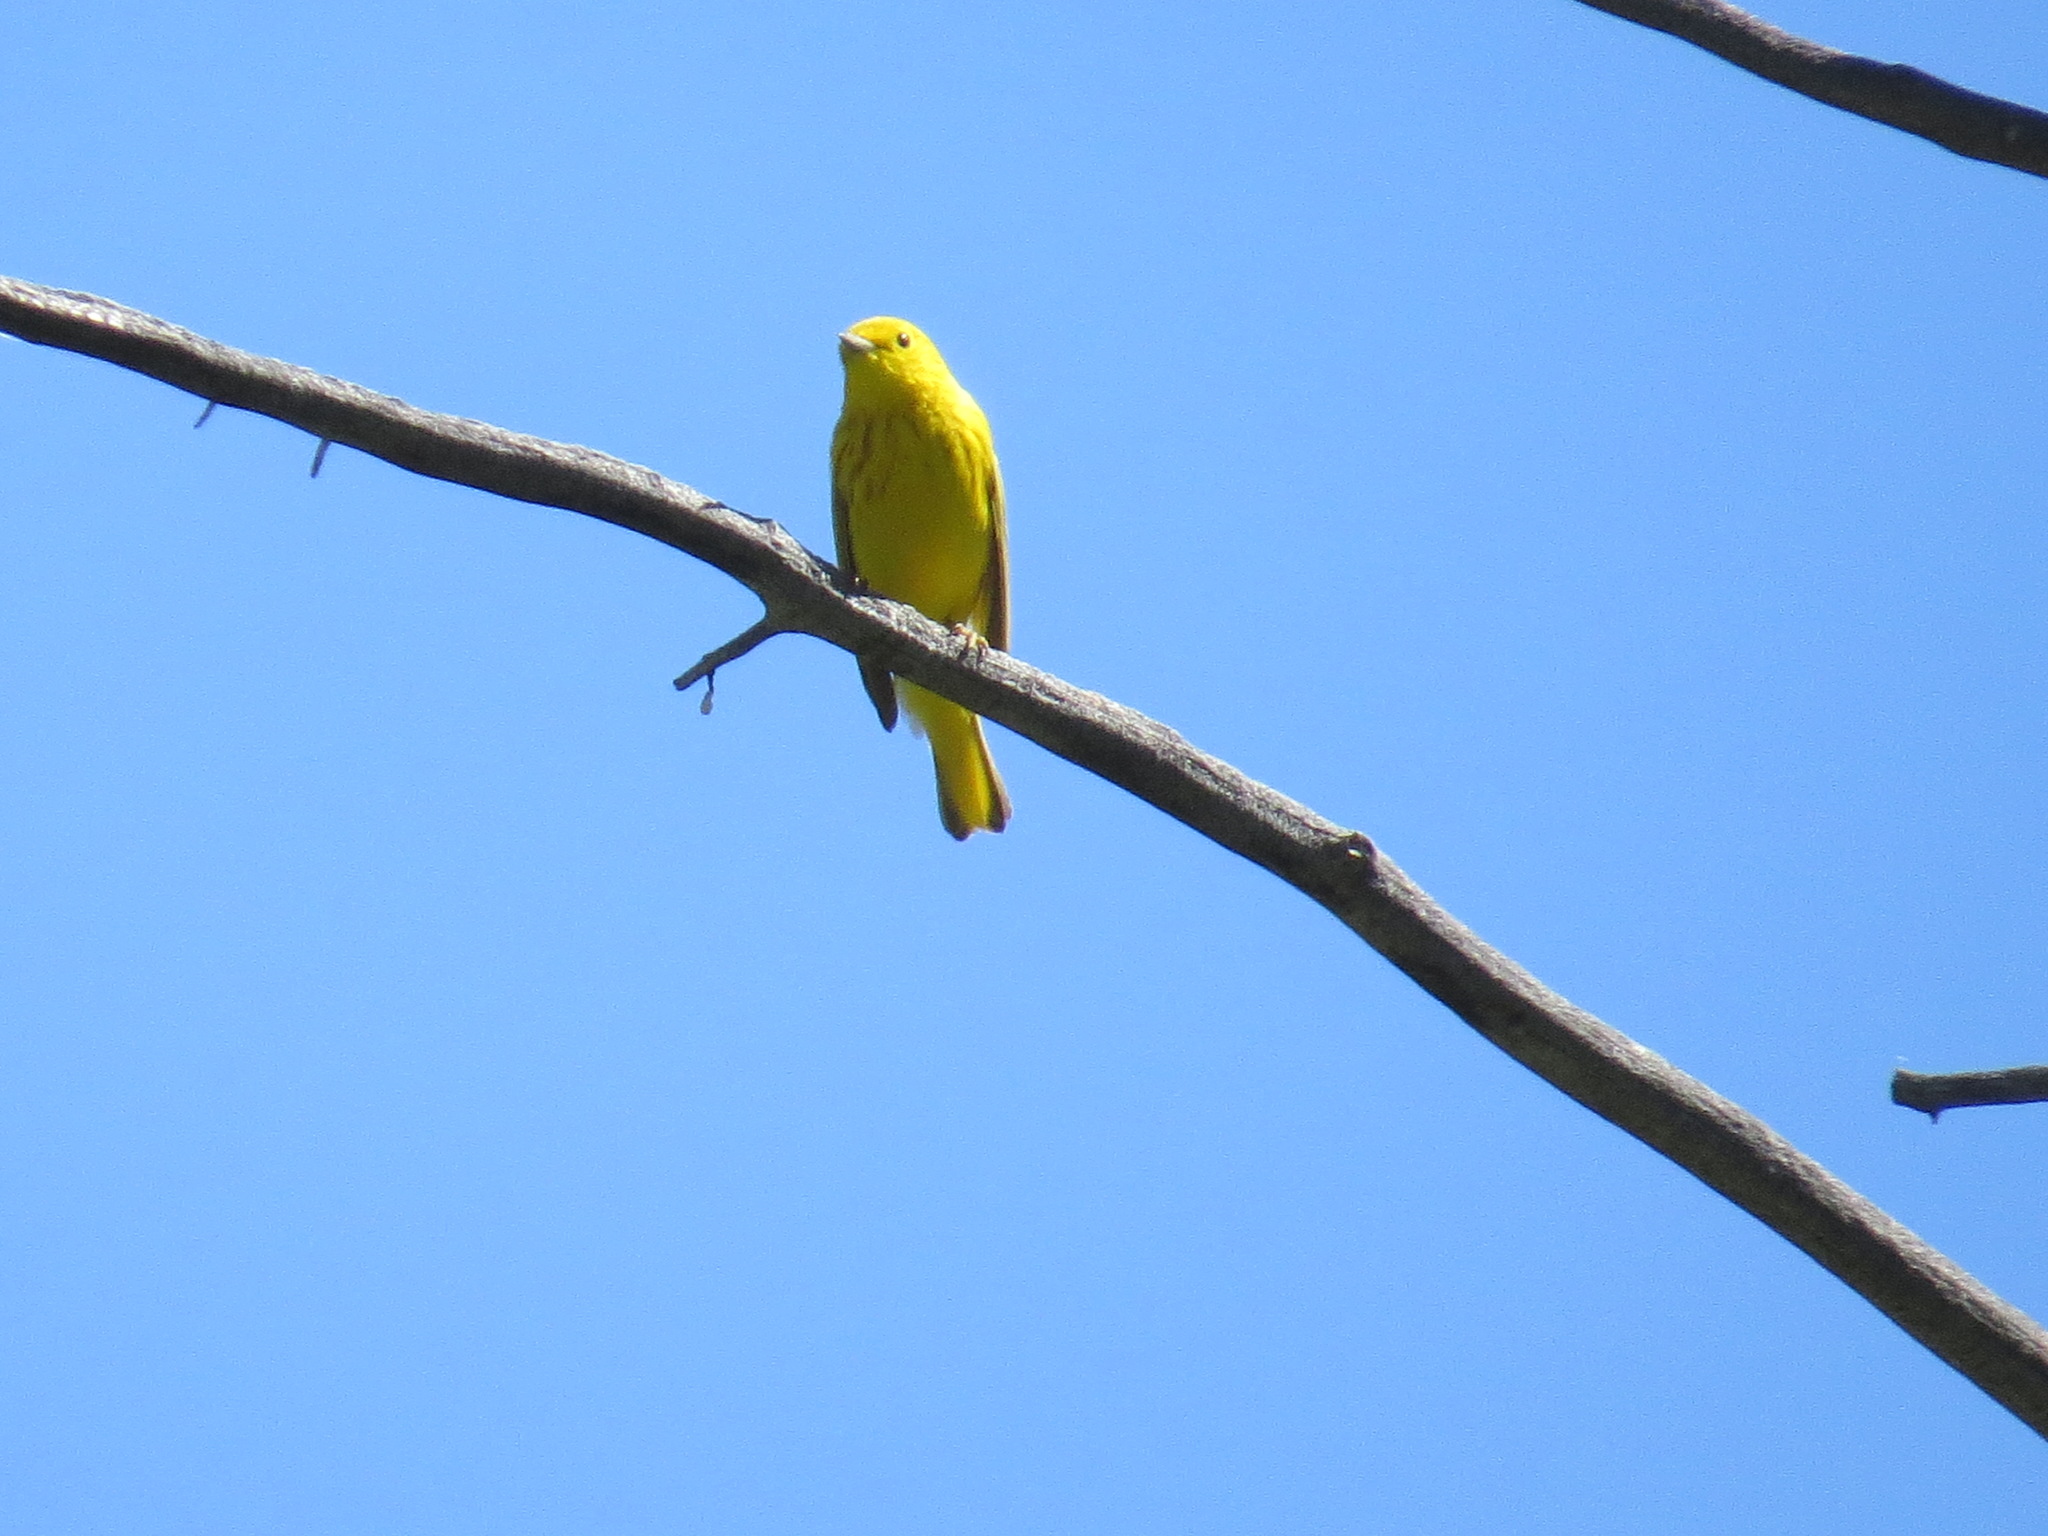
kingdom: Animalia
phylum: Chordata
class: Aves
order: Passeriformes
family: Parulidae
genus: Setophaga
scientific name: Setophaga petechia
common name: Yellow warbler
